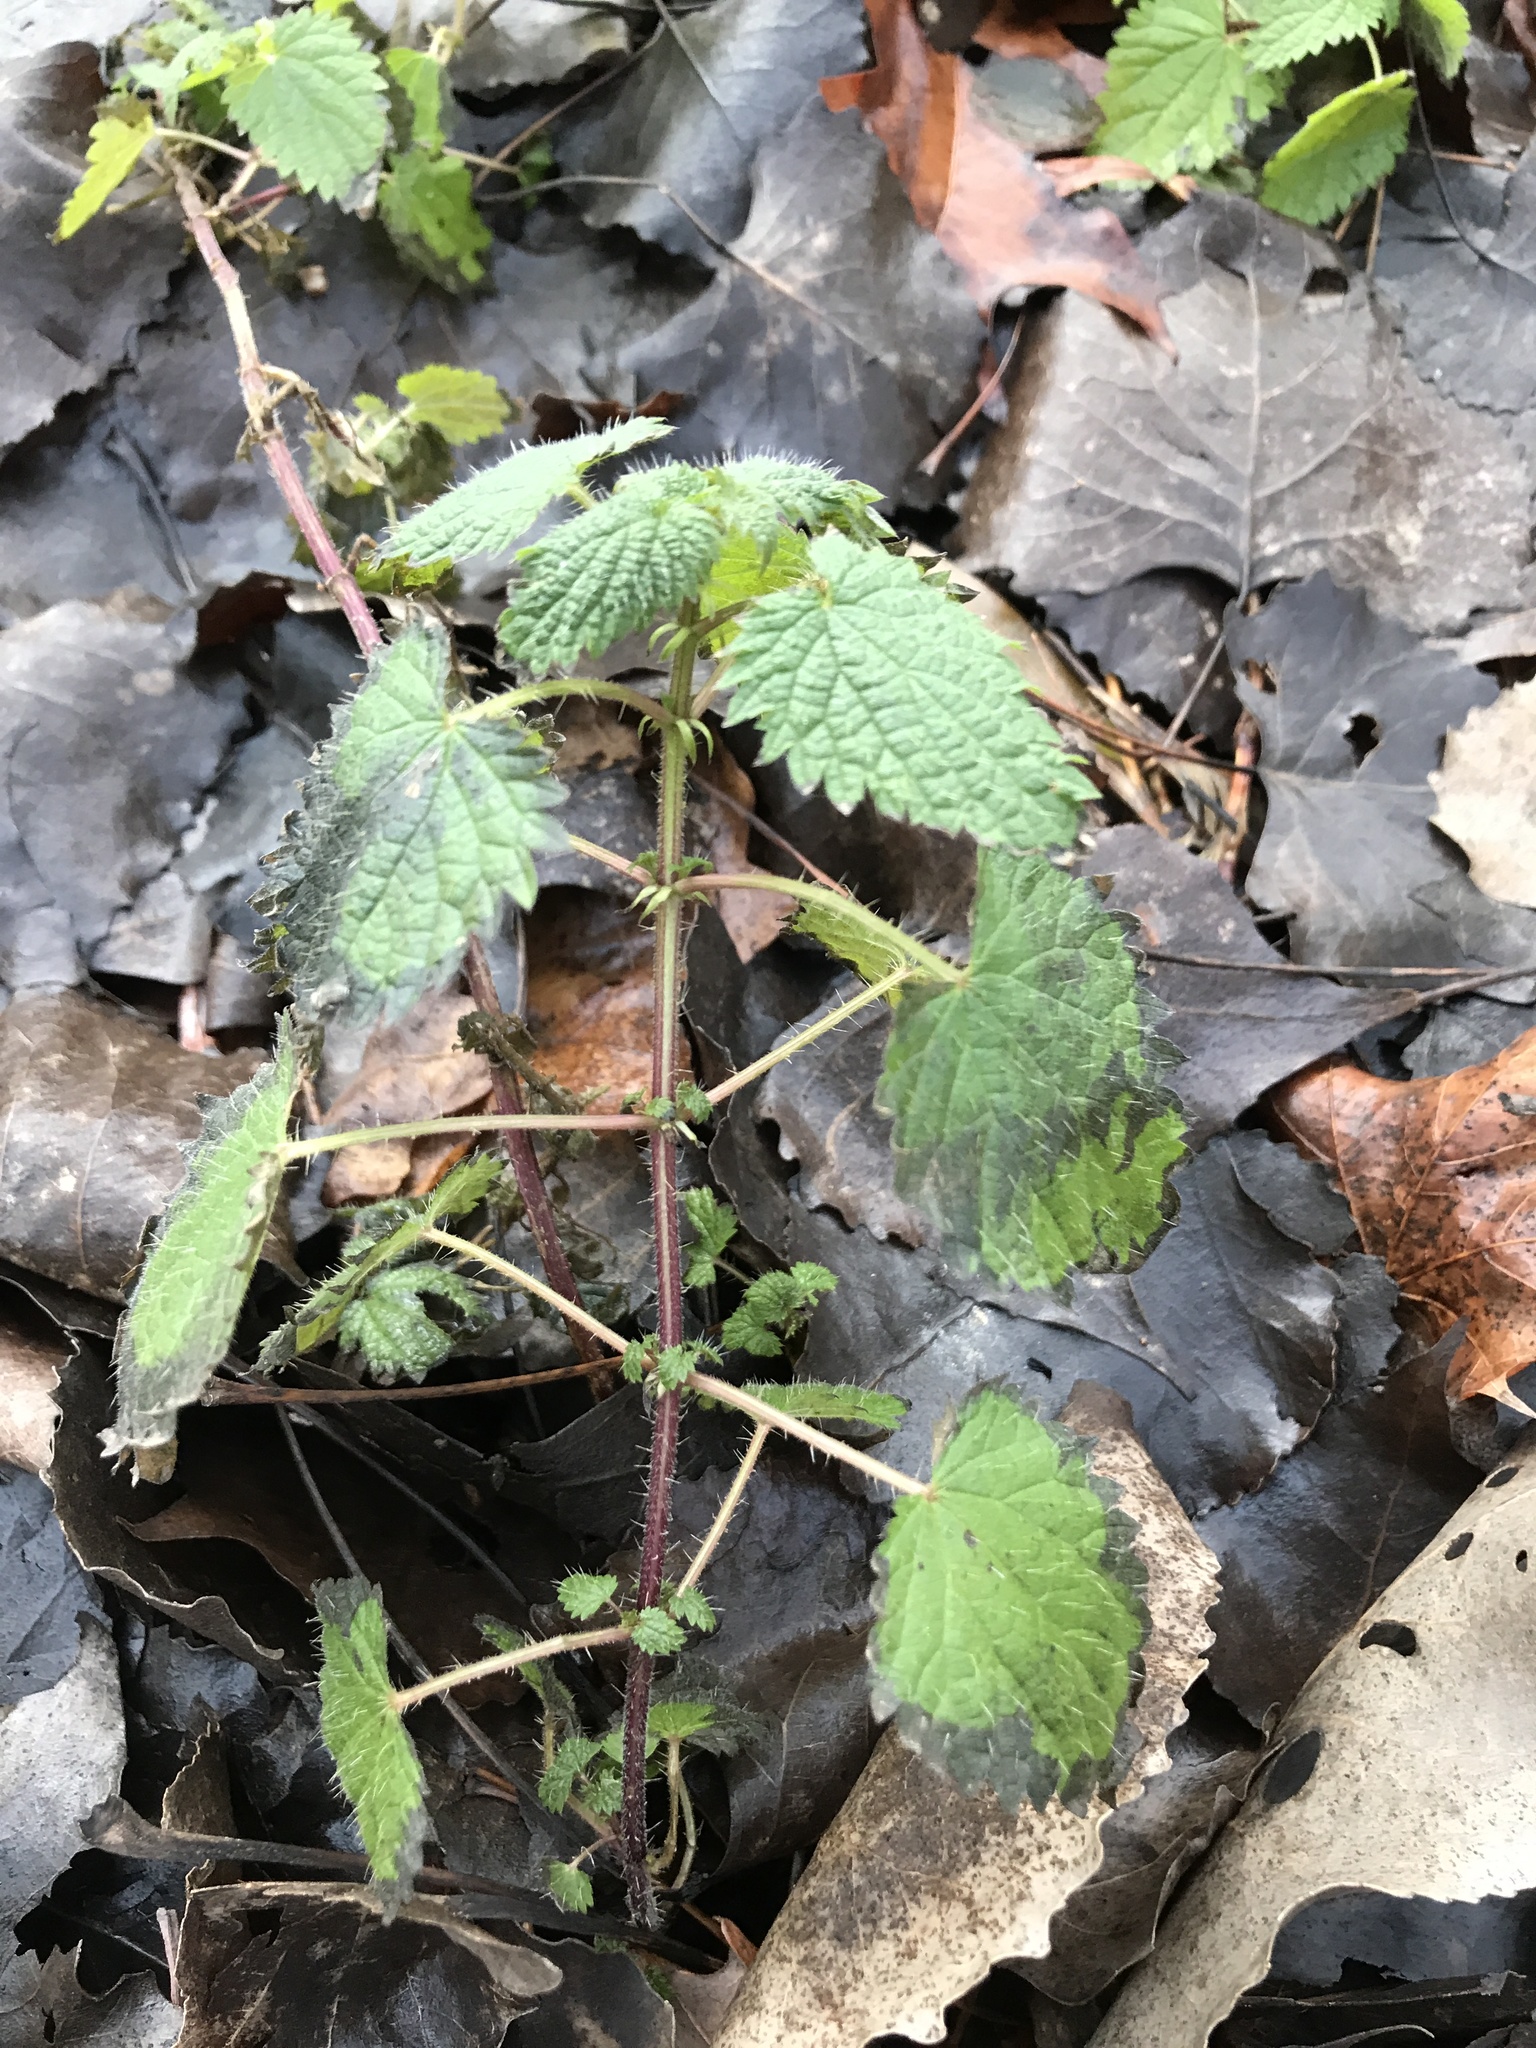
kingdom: Plantae
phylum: Tracheophyta
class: Magnoliopsida
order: Rosales
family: Urticaceae
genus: Urtica
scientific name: Urtica dioica
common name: Common nettle
